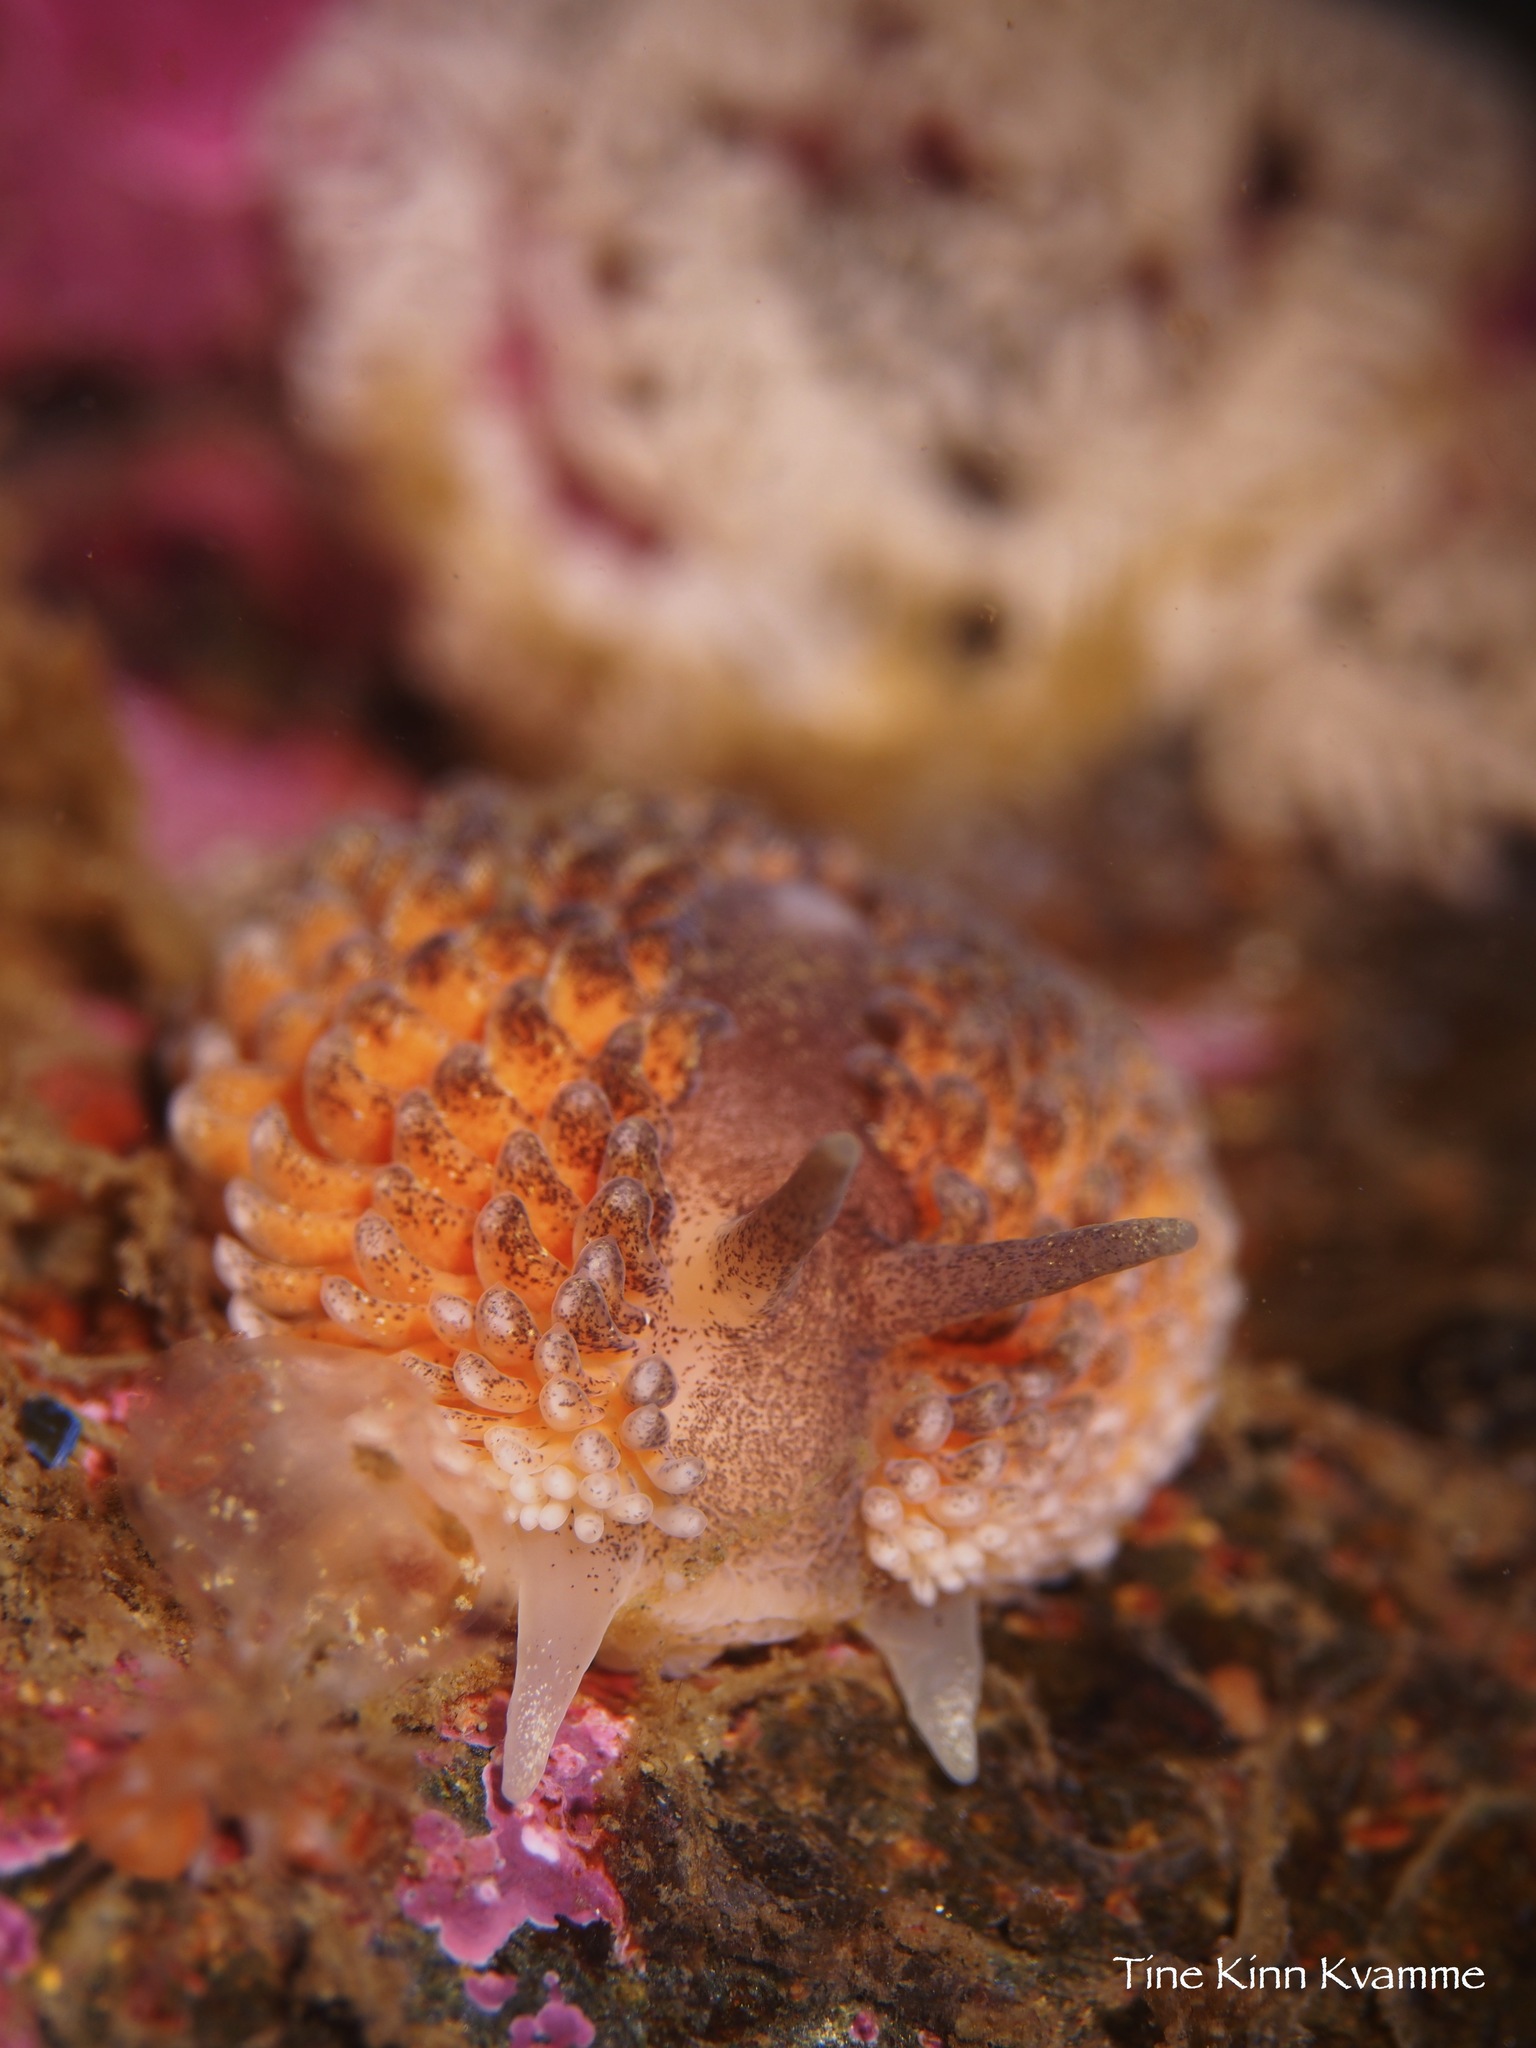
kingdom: Animalia
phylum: Mollusca
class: Gastropoda
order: Nudibranchia
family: Aeolidiidae
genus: Aeolidia
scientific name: Aeolidia papillosa
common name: Common grey sea slug
